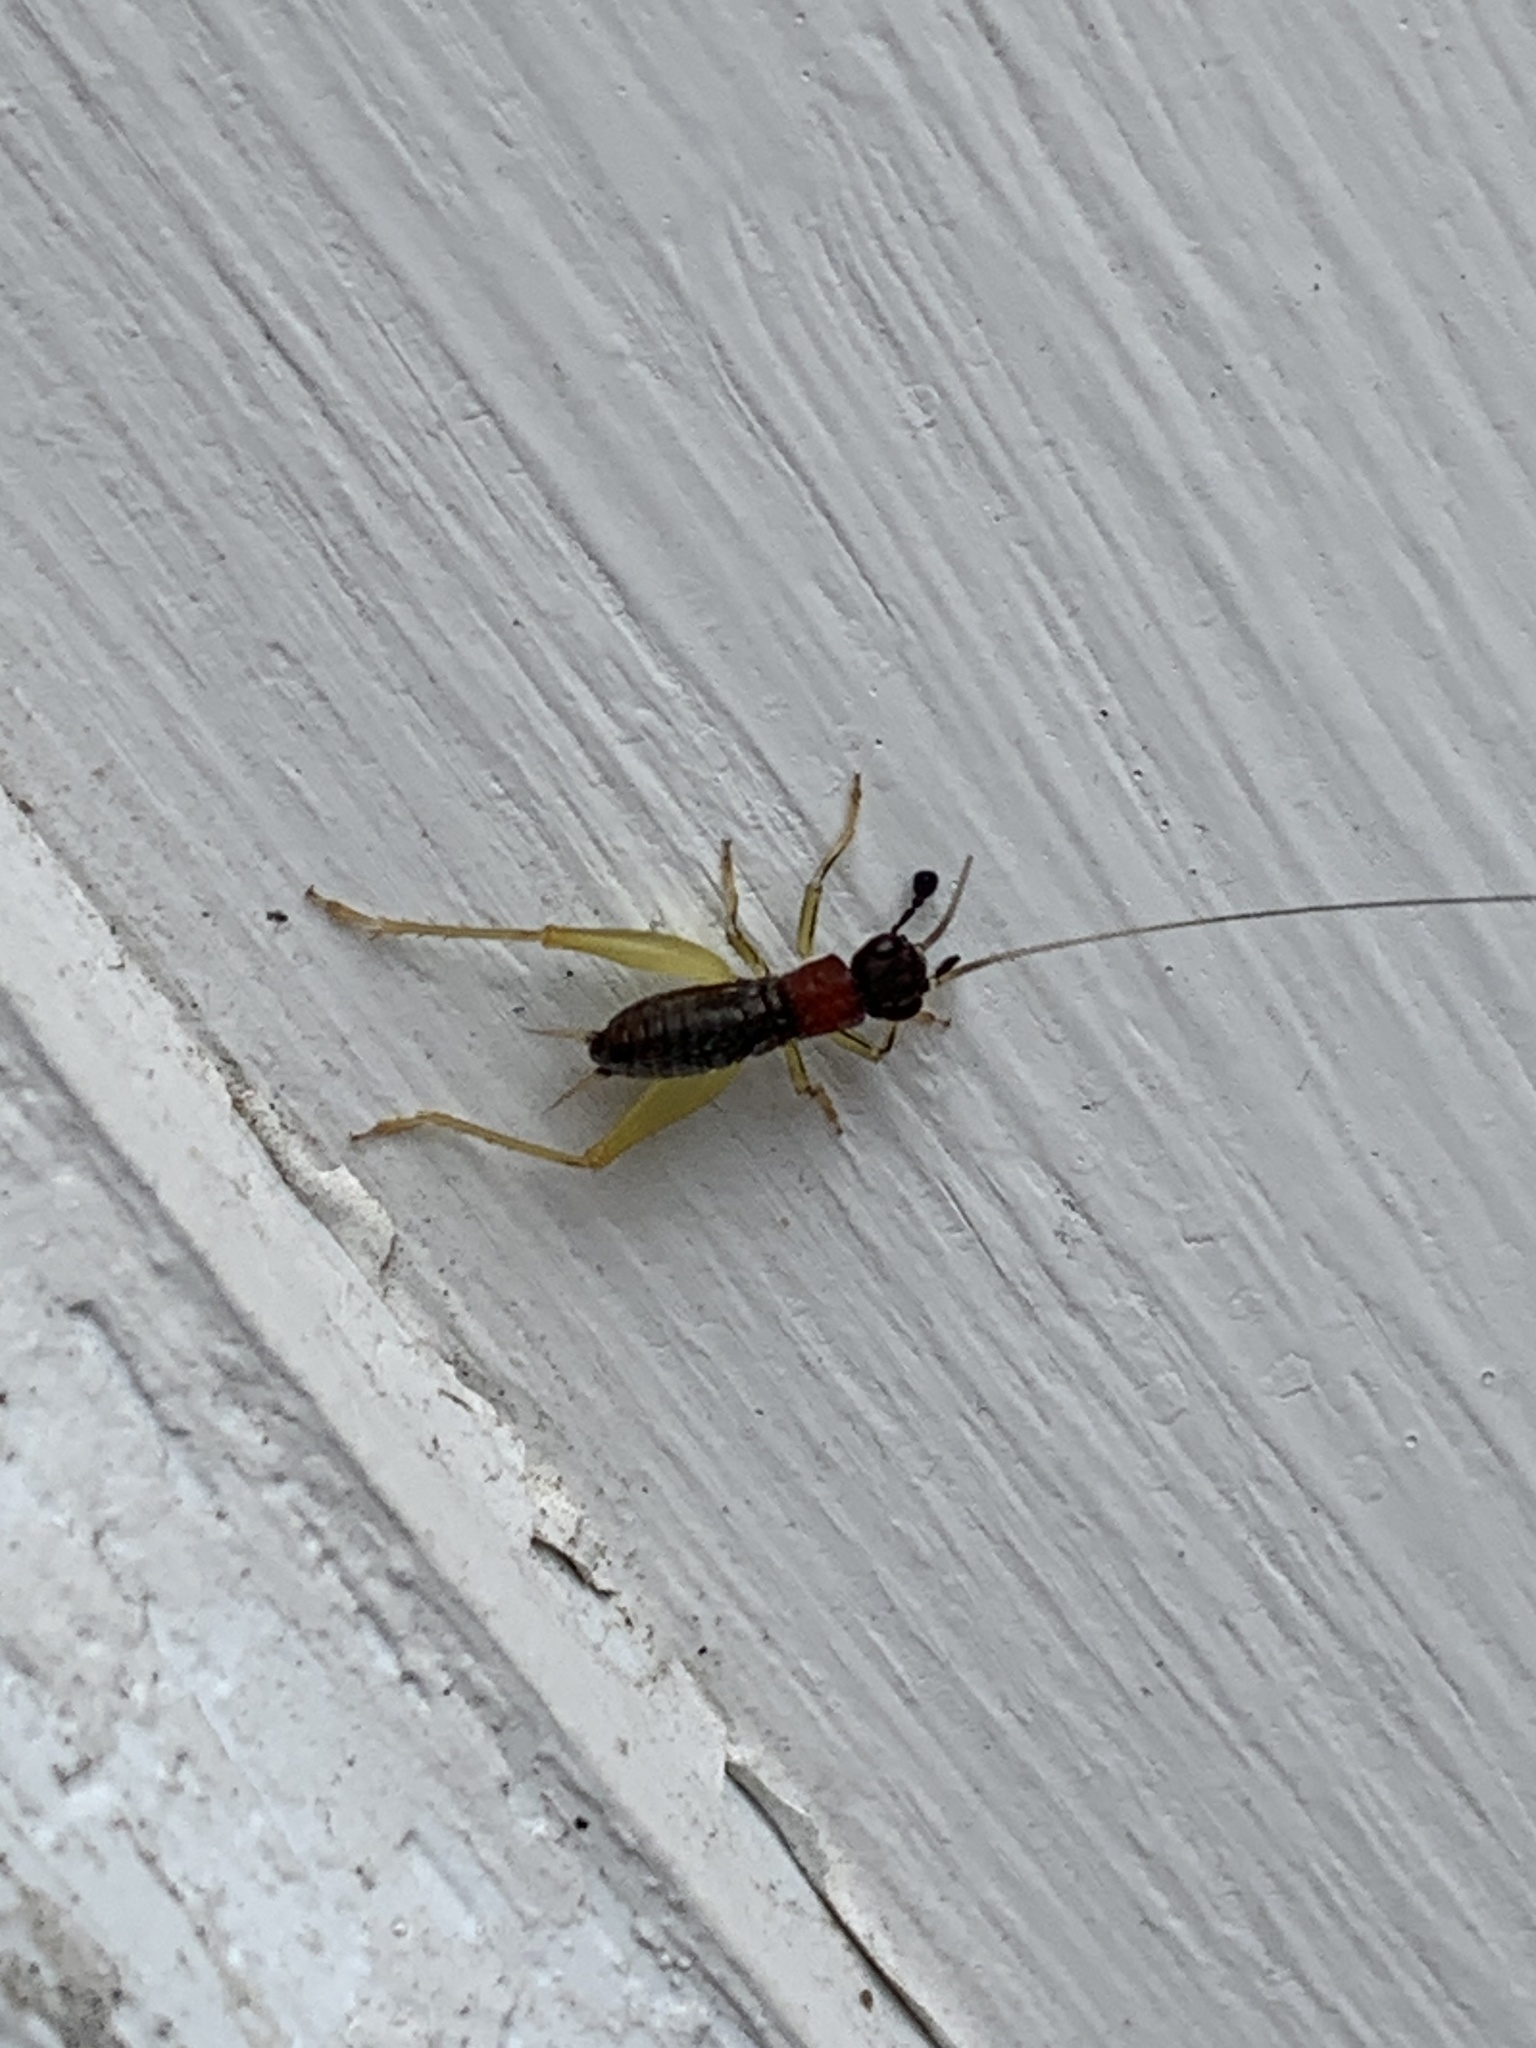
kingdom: Animalia
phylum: Arthropoda
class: Insecta
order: Orthoptera
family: Trigonidiidae
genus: Phyllopalpus
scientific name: Phyllopalpus pulchellus
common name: Handsome trig
